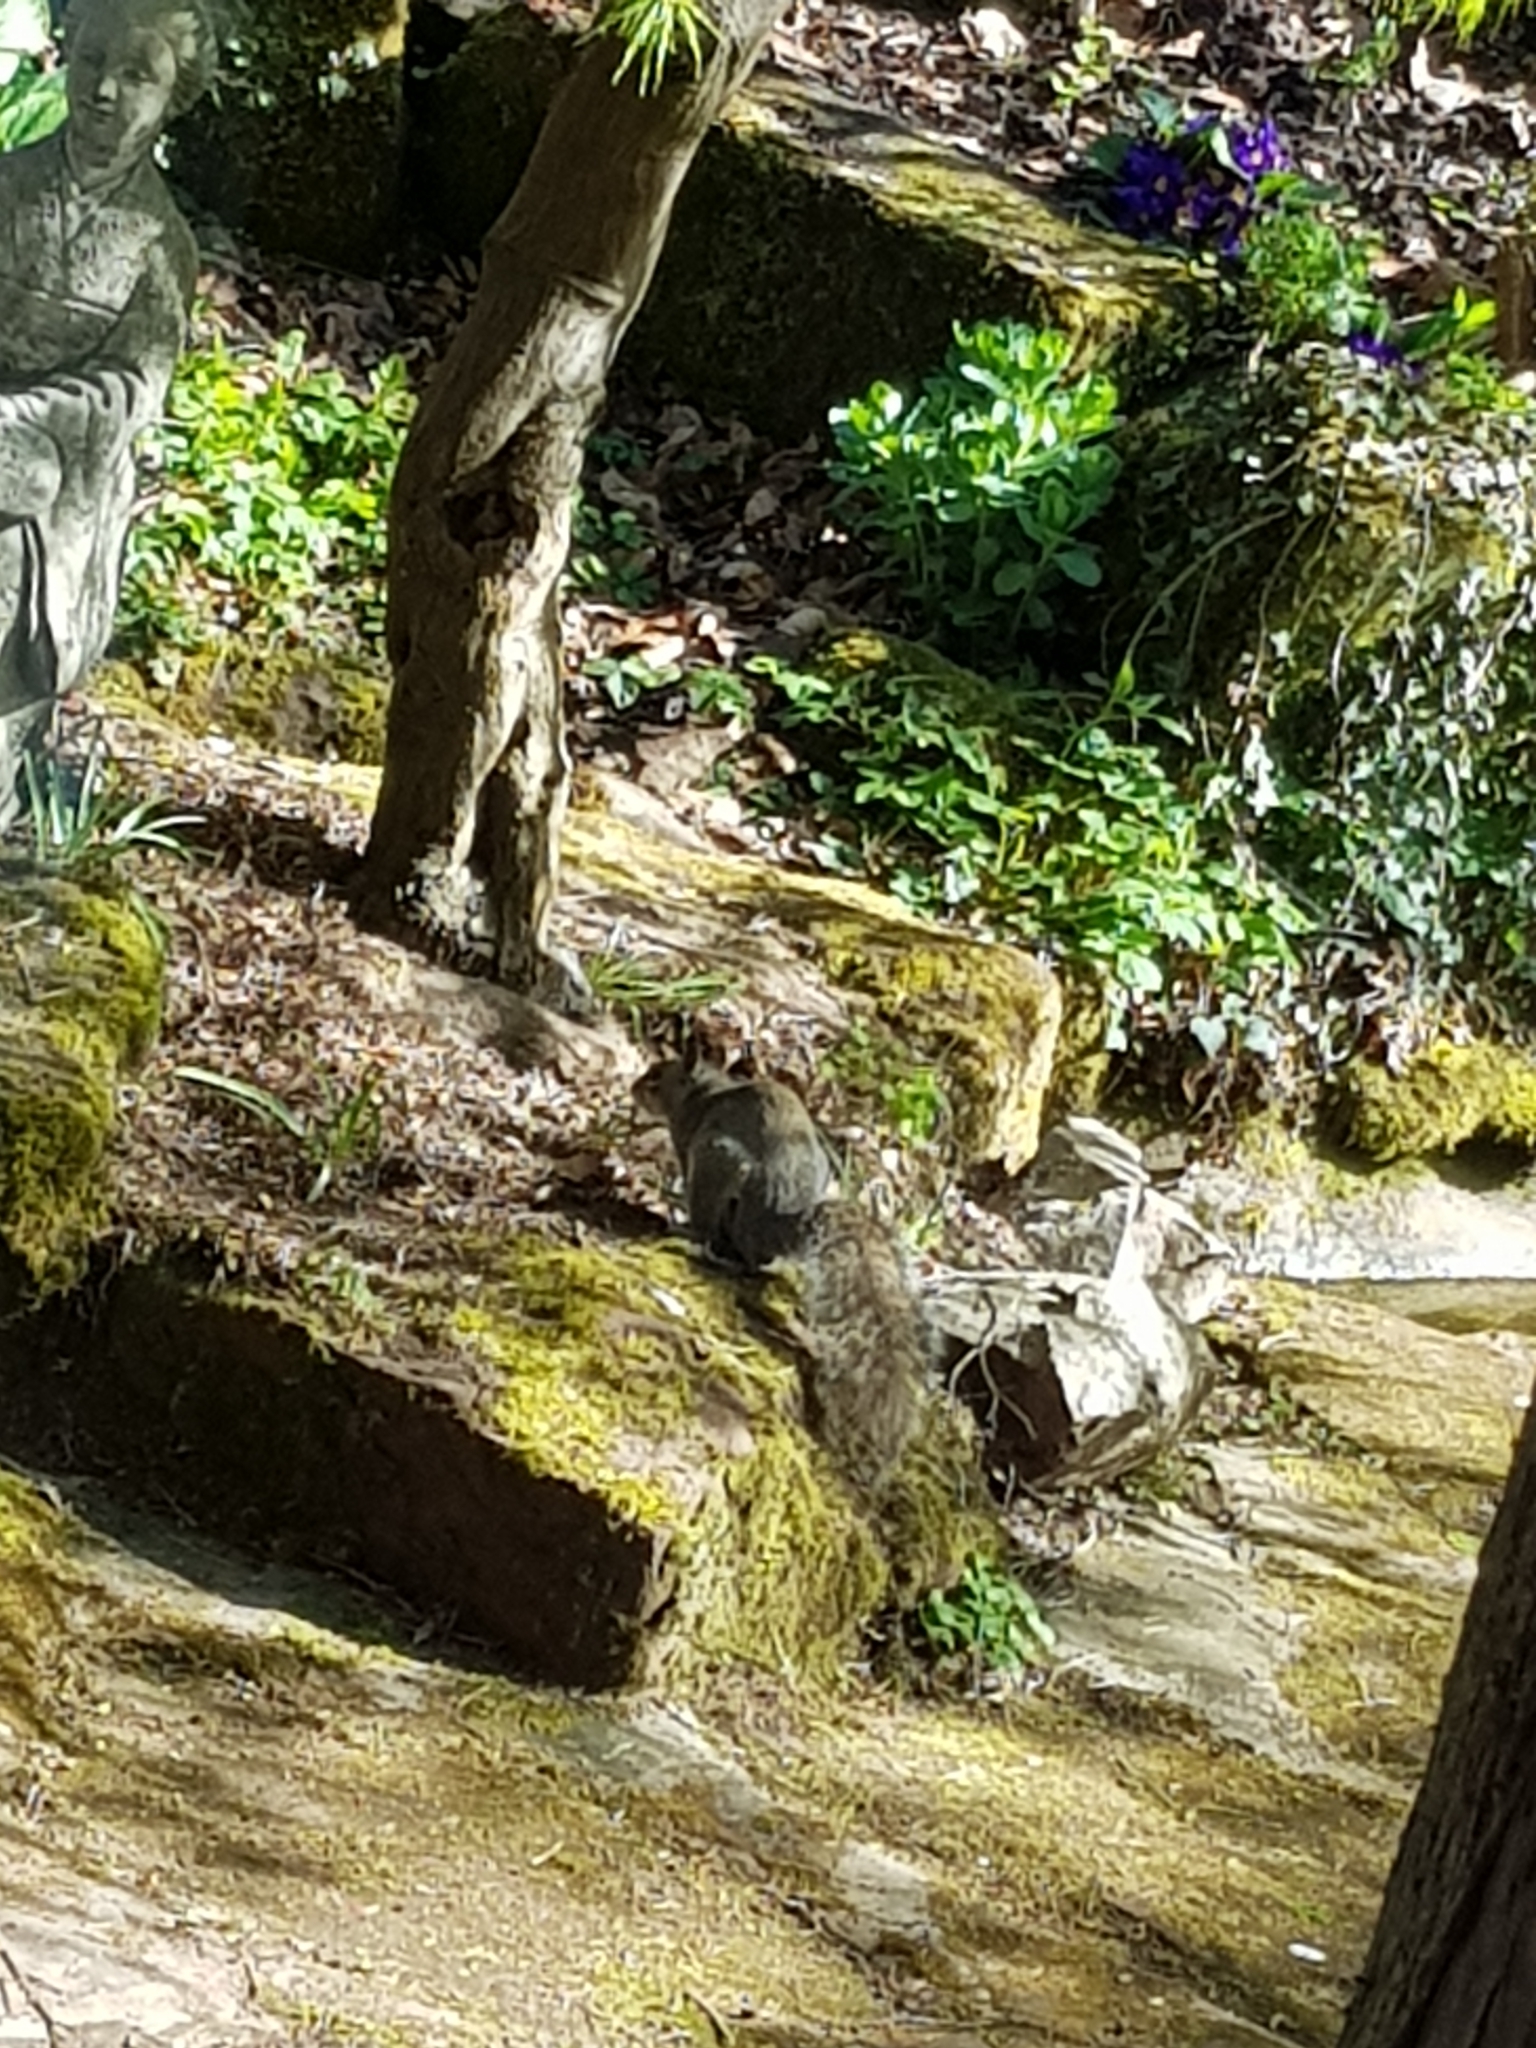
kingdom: Animalia
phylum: Chordata
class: Mammalia
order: Rodentia
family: Sciuridae
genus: Sciurus
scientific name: Sciurus carolinensis
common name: Eastern gray squirrel
